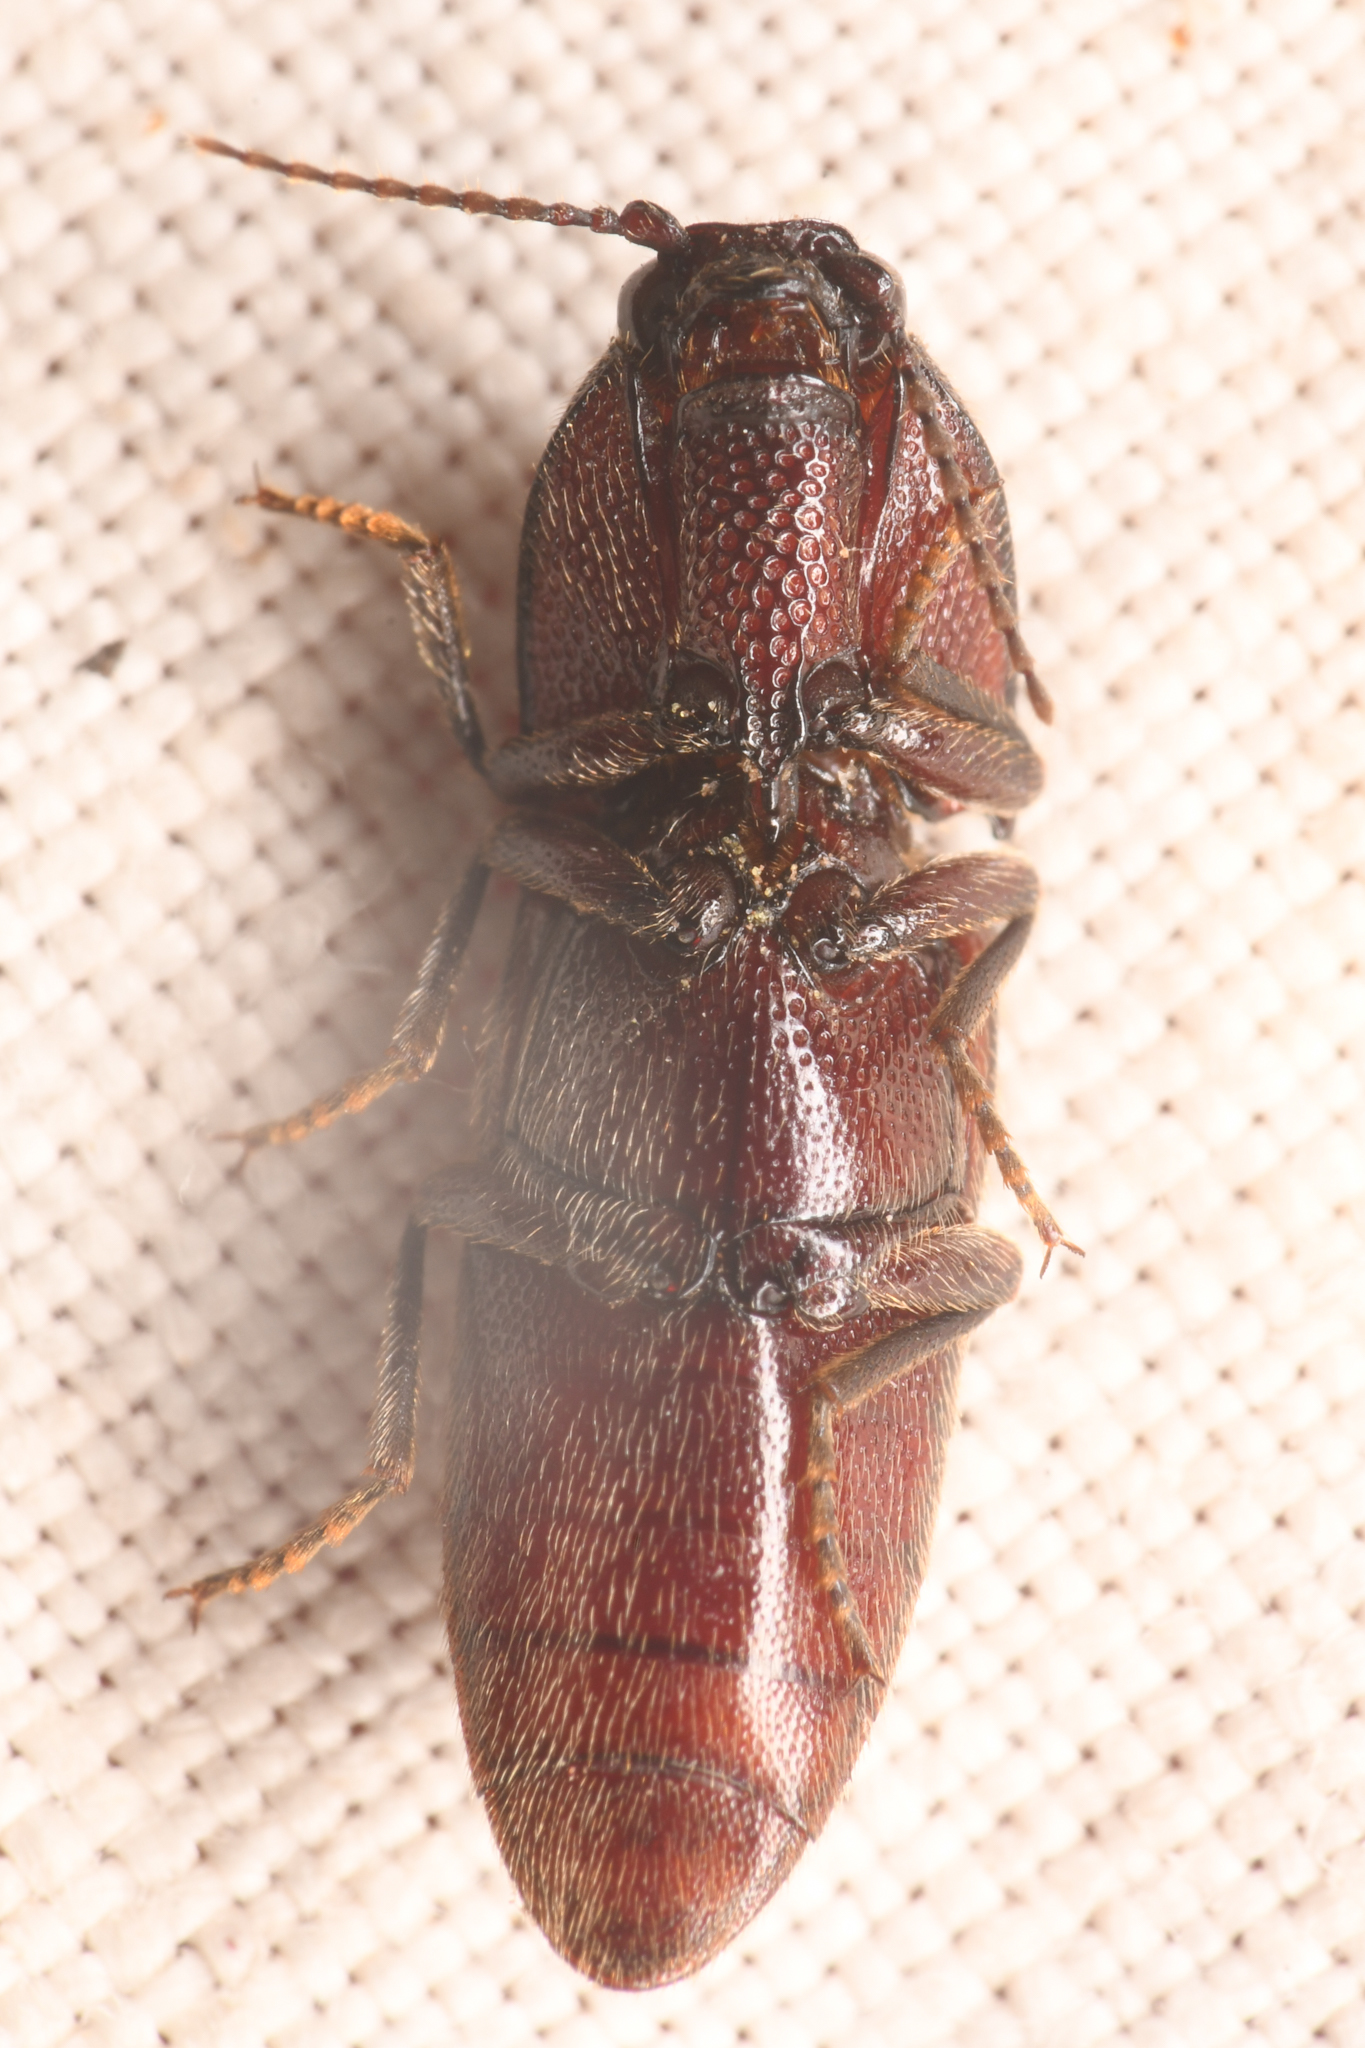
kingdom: Animalia
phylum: Arthropoda
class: Insecta
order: Coleoptera
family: Elateridae
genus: Melanotus
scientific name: Melanotus cribricollis
